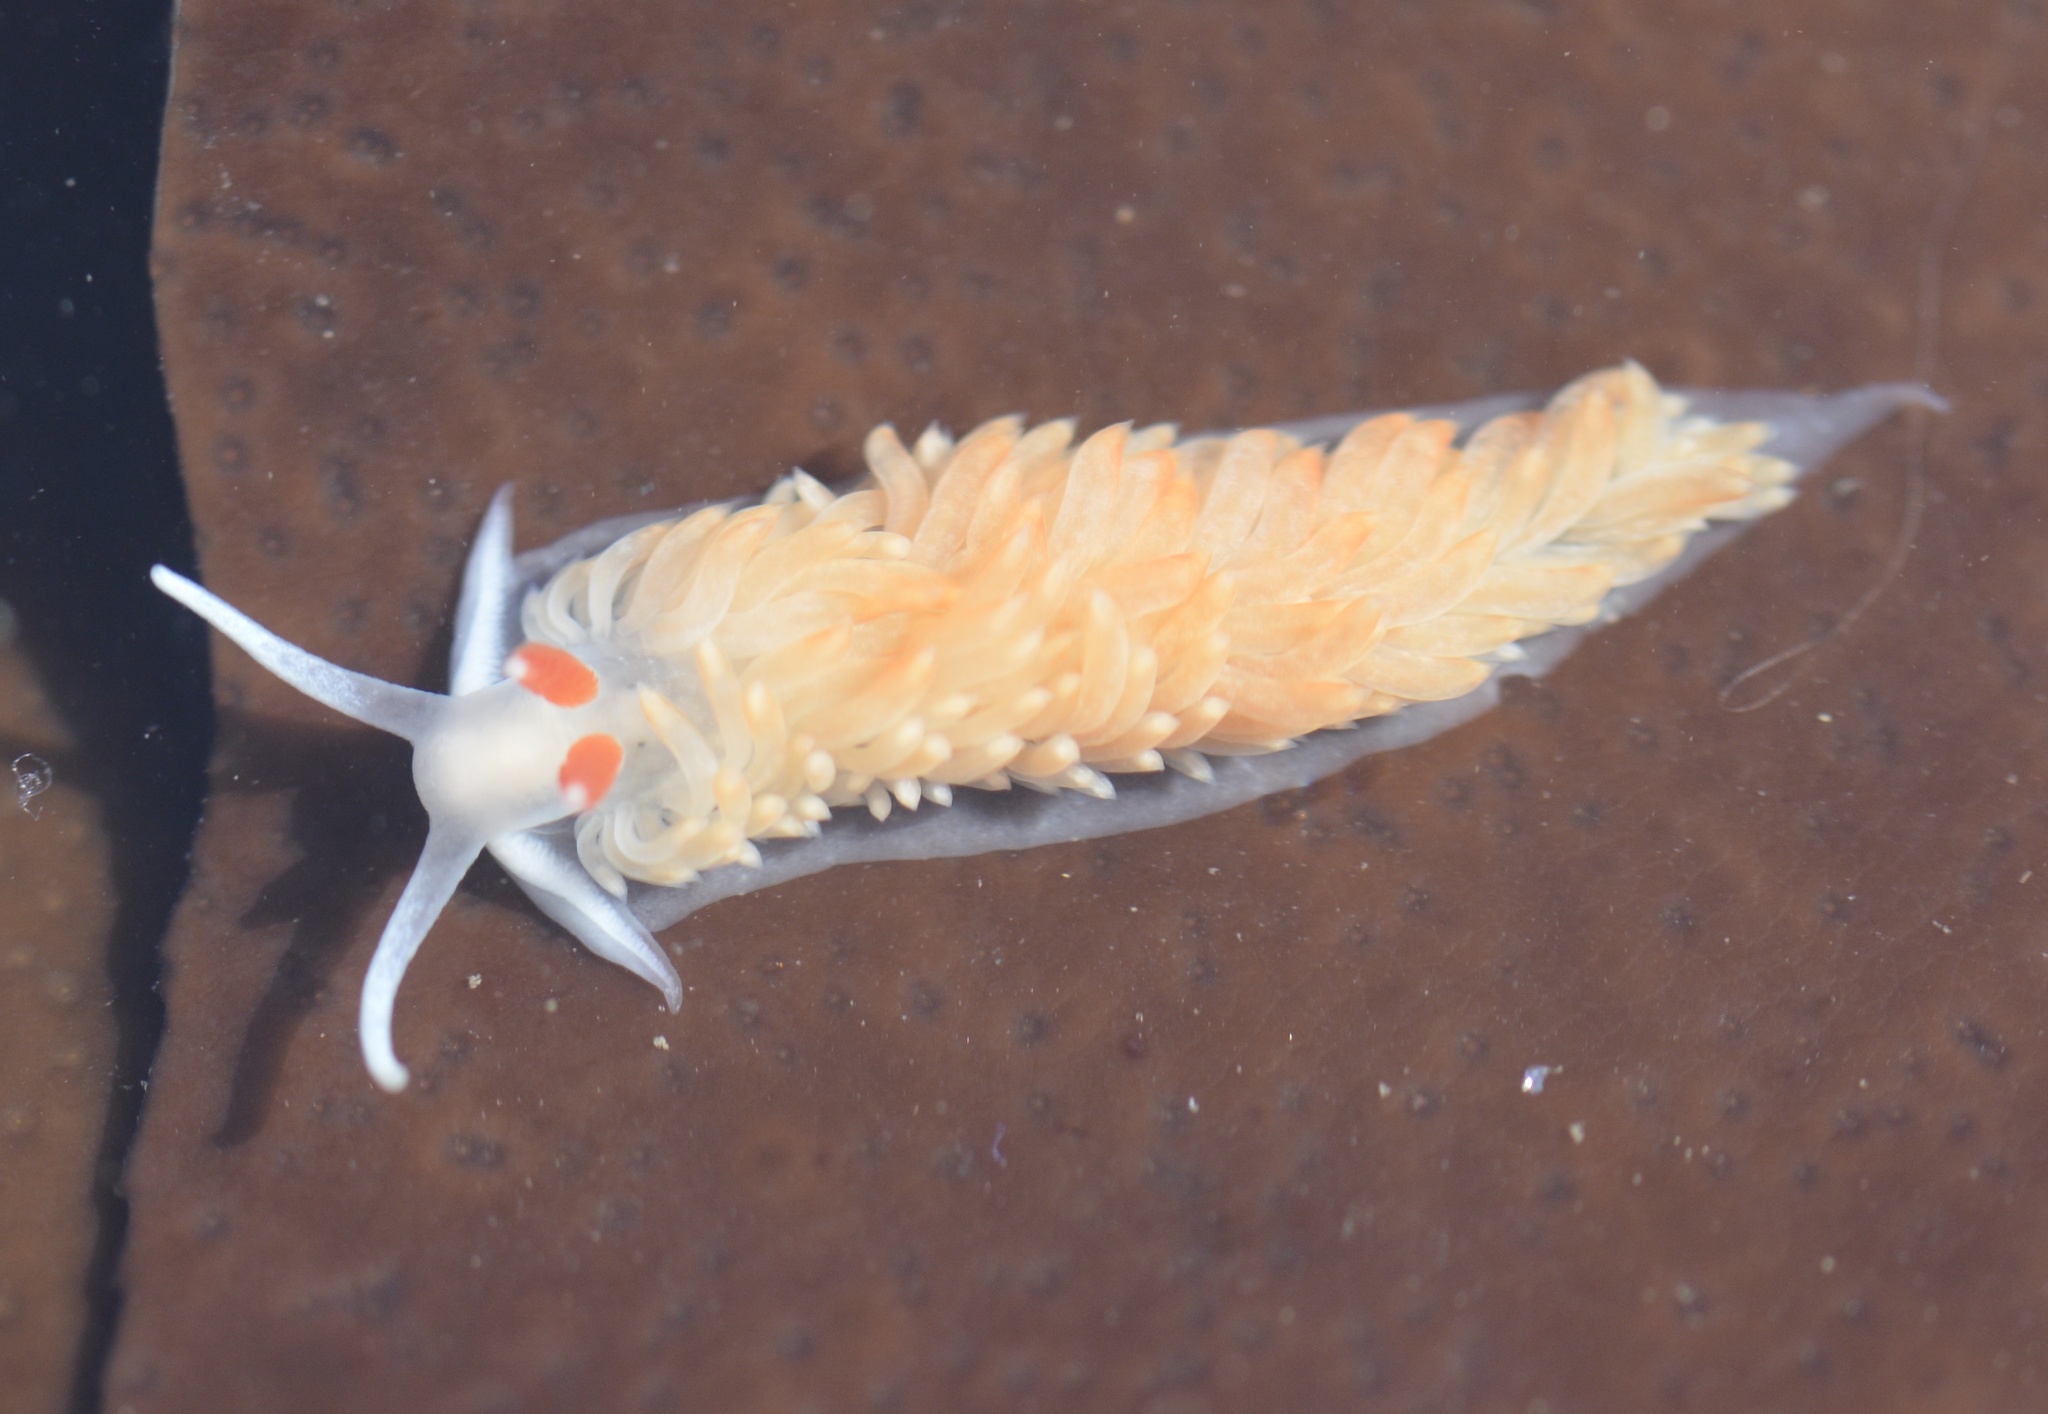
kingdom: Animalia
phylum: Mollusca
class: Gastropoda
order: Nudibranchia
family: Aeolidiidae
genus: Anteaeolidiella
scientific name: Anteaeolidiella oliviae
